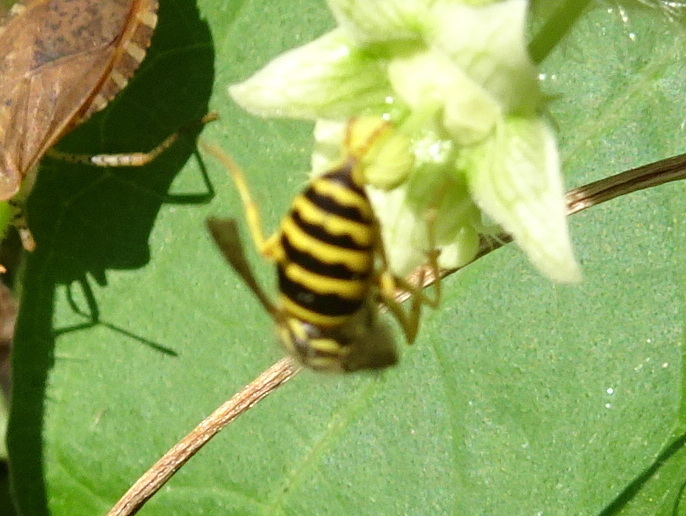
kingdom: Animalia
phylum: Arthropoda
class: Insecta
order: Hymenoptera
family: Vespidae
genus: Vespula
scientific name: Vespula maculifrons
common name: Eastern yellowjacket
